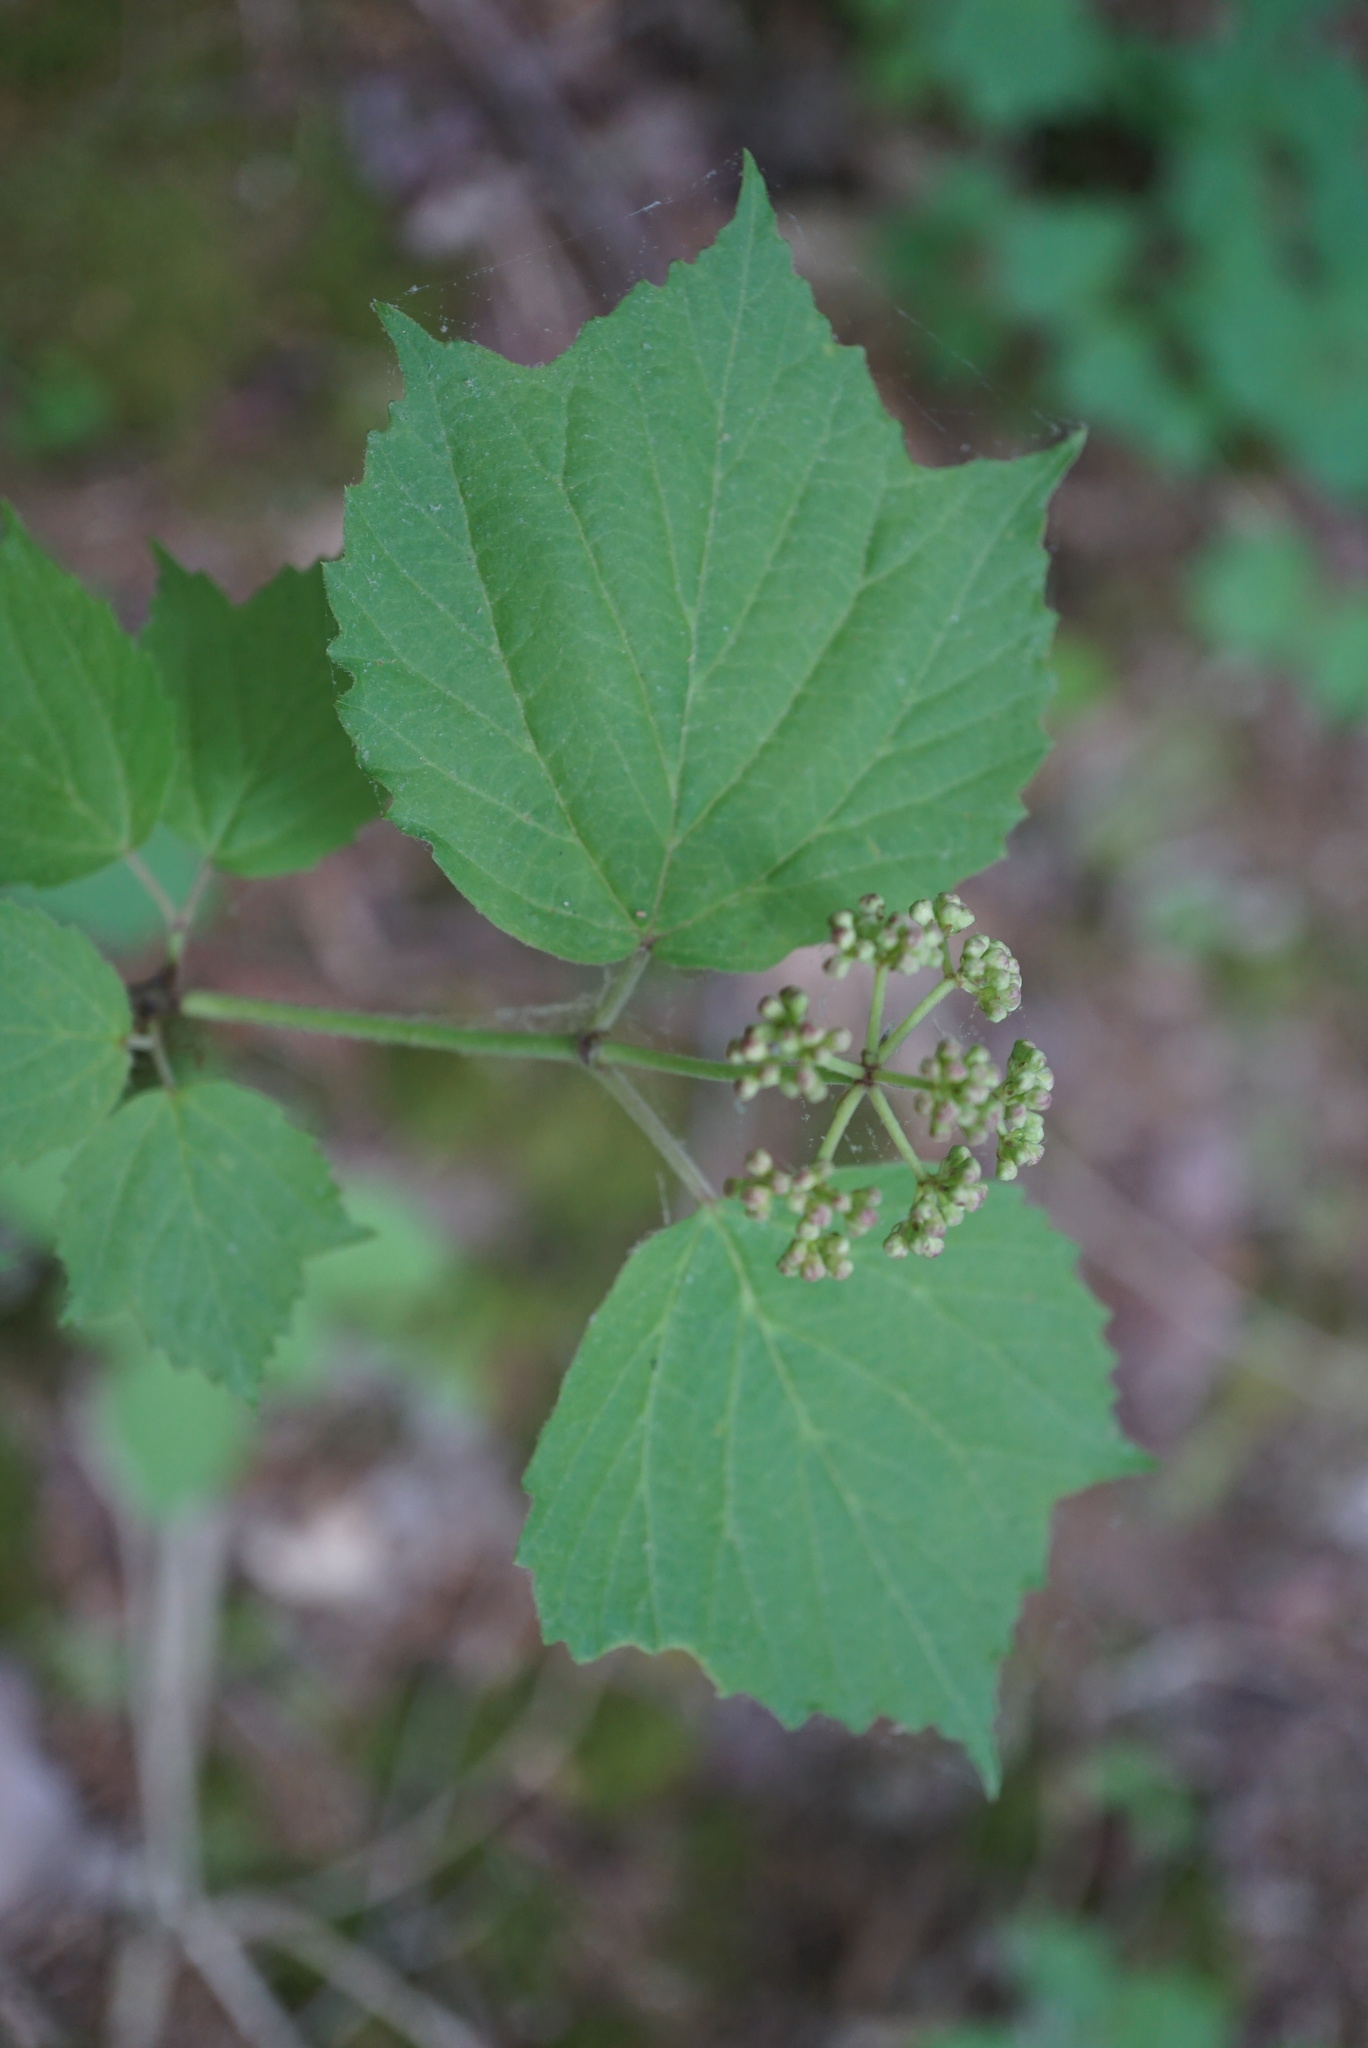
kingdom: Plantae
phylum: Tracheophyta
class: Magnoliopsida
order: Dipsacales
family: Viburnaceae
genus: Viburnum
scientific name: Viburnum acerifolium
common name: Dockmackie
